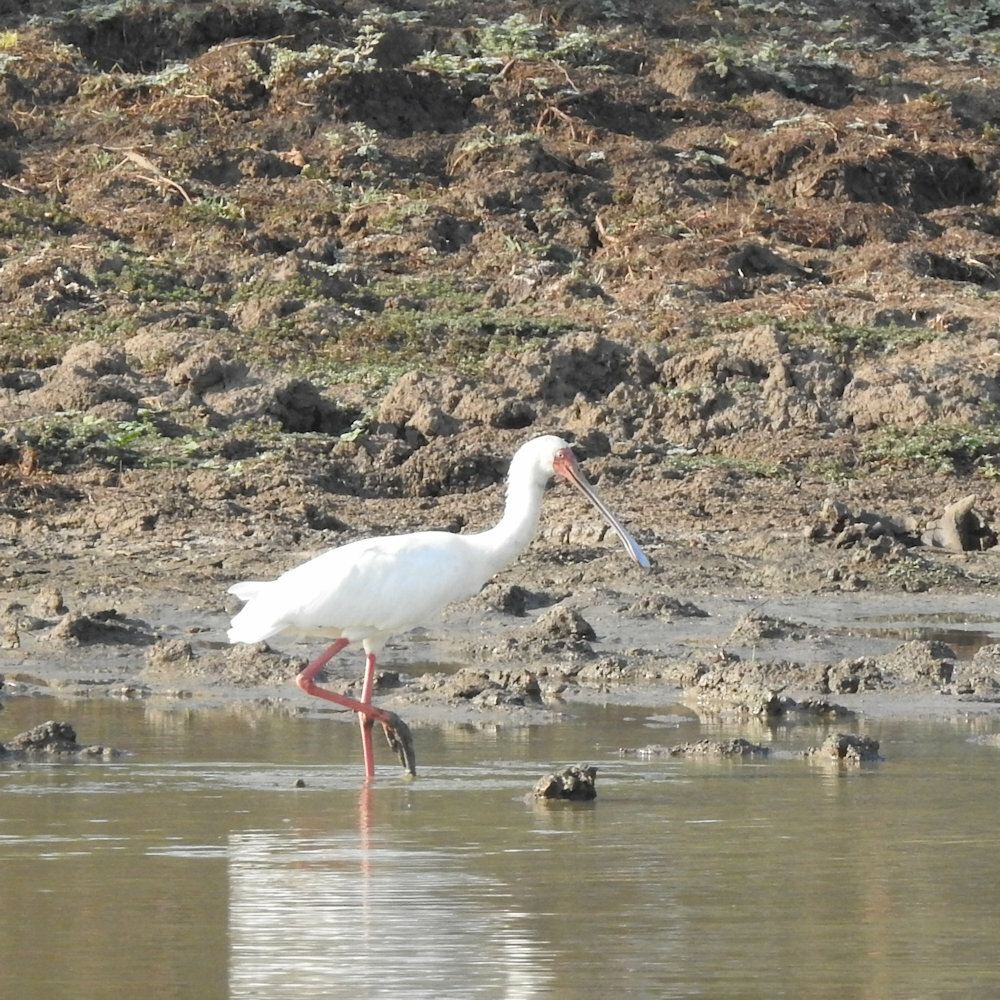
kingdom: Animalia
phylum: Chordata
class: Aves
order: Pelecaniformes
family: Threskiornithidae
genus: Platalea
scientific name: Platalea alba
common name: African spoonbill
